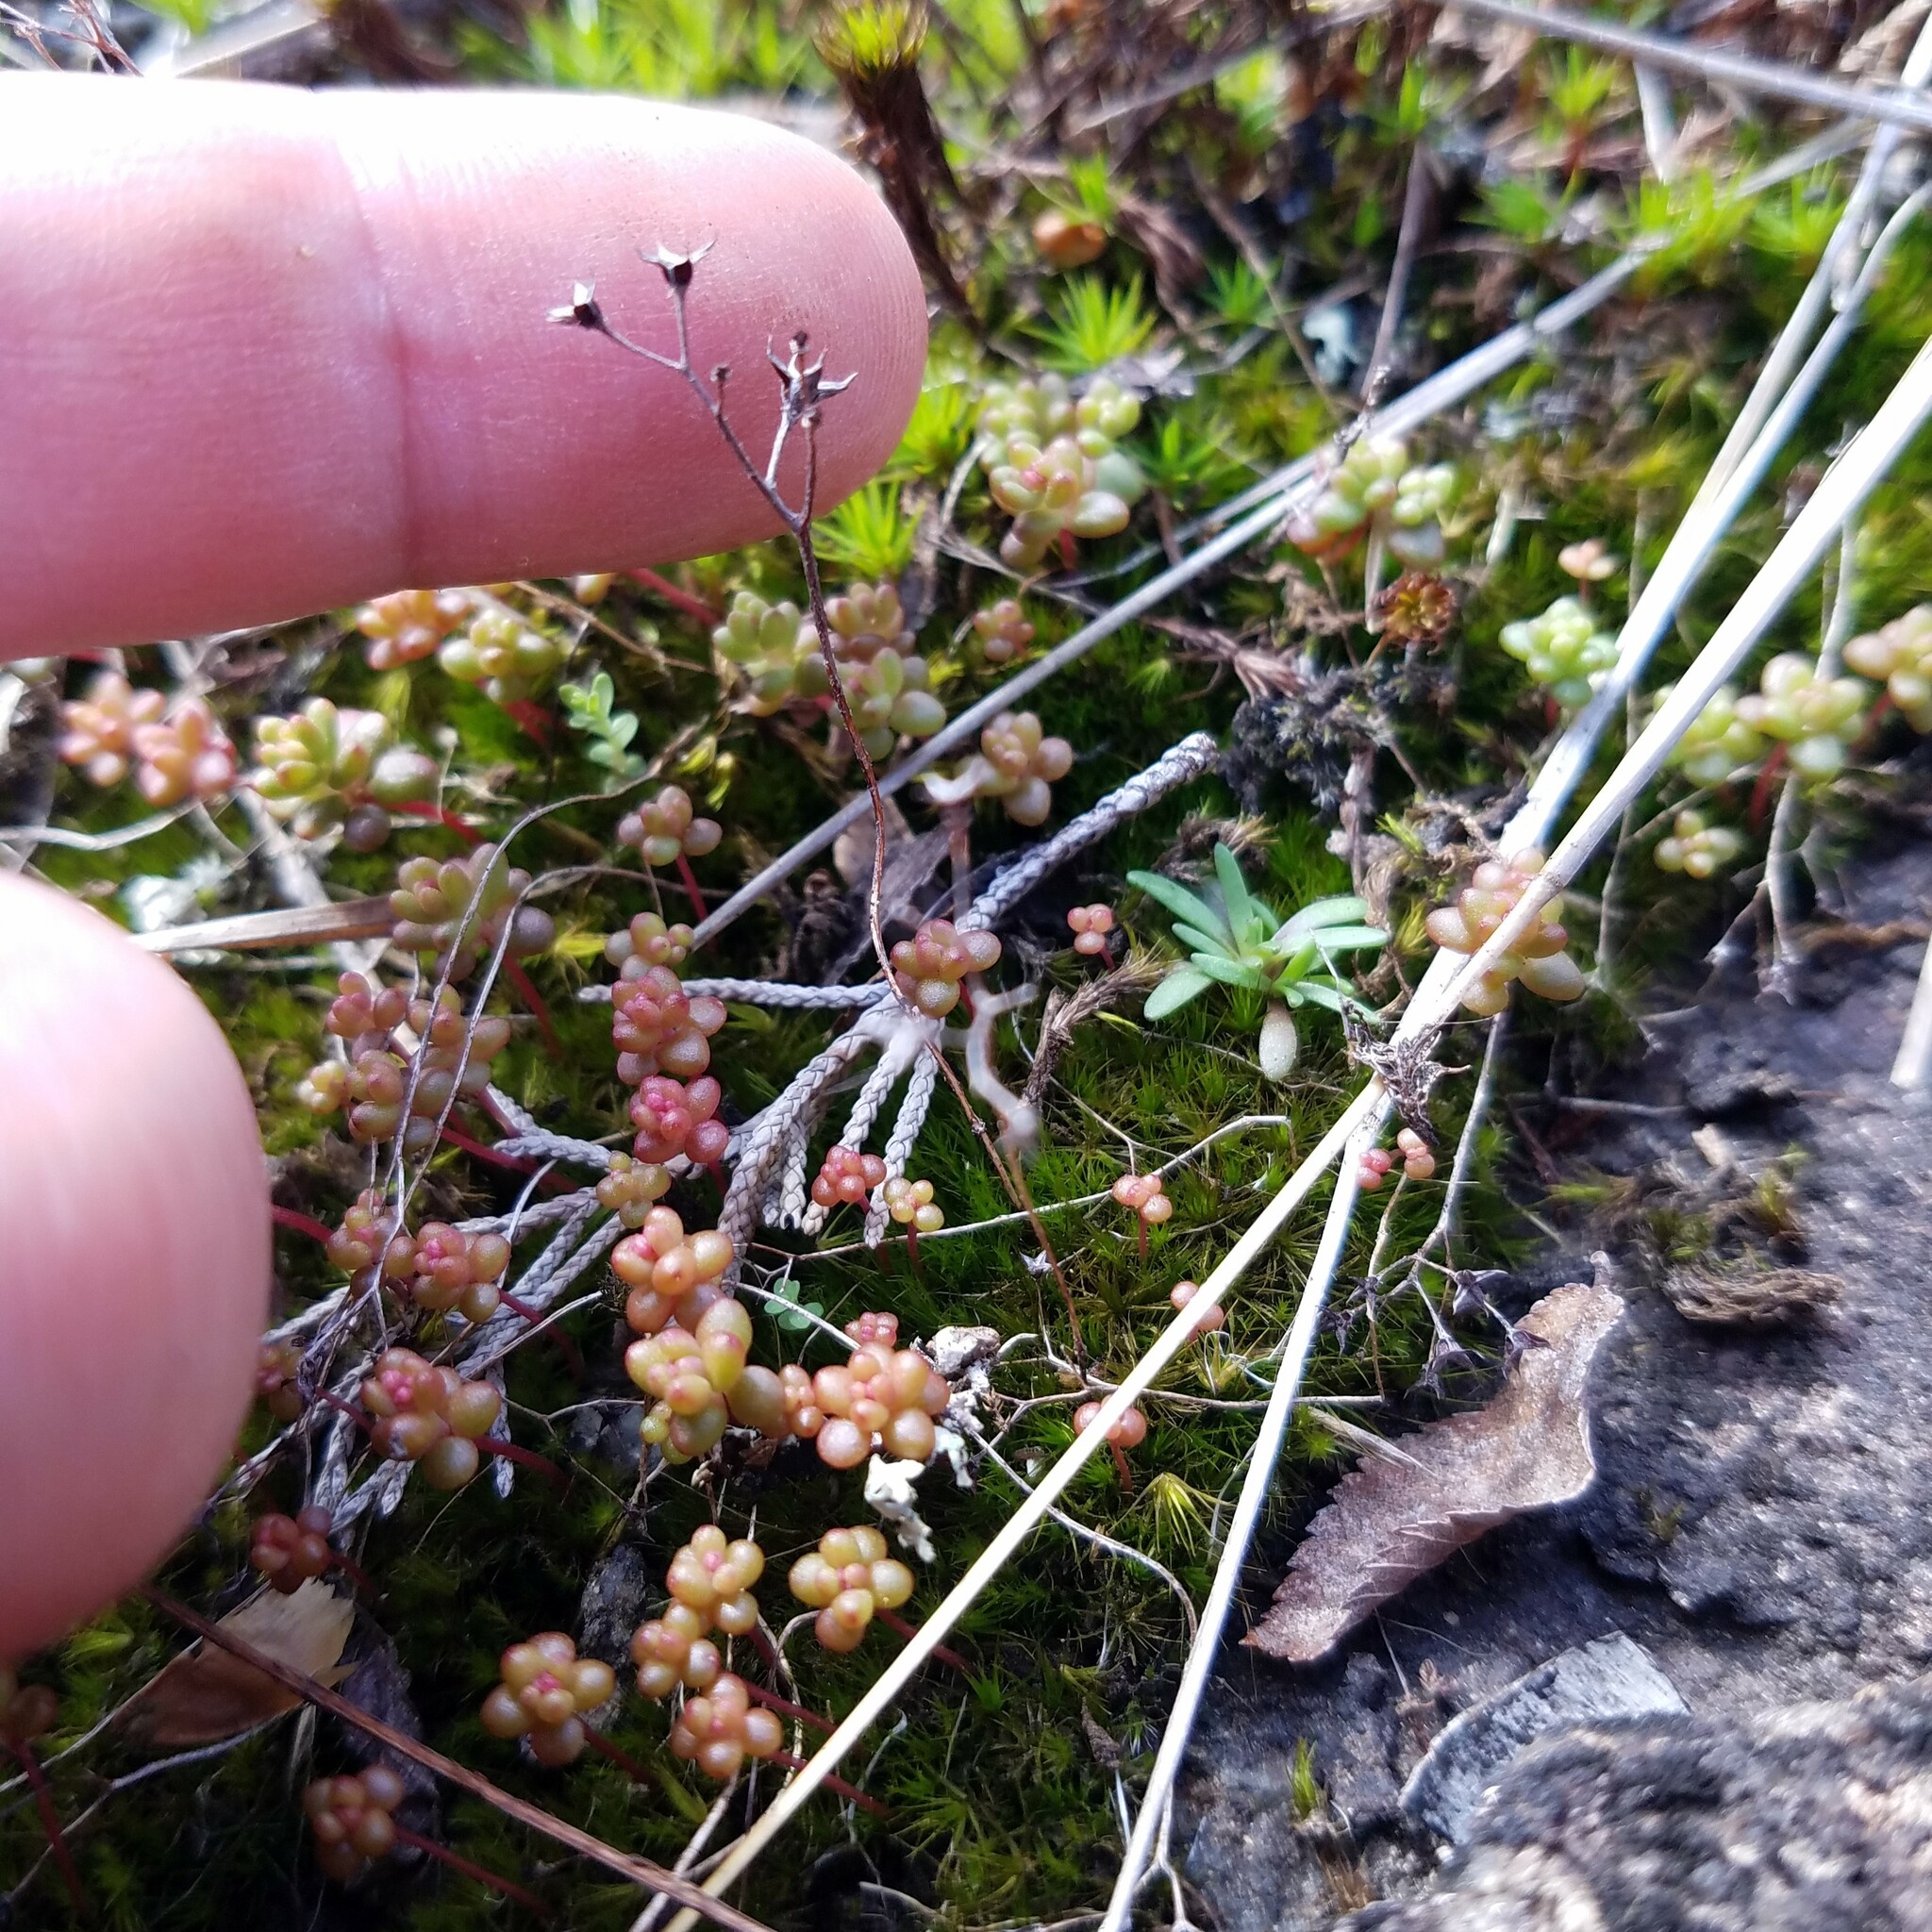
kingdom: Plantae
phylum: Tracheophyta
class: Magnoliopsida
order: Saxifragales
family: Crassulaceae
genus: Sedum
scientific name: Sedum smallii
